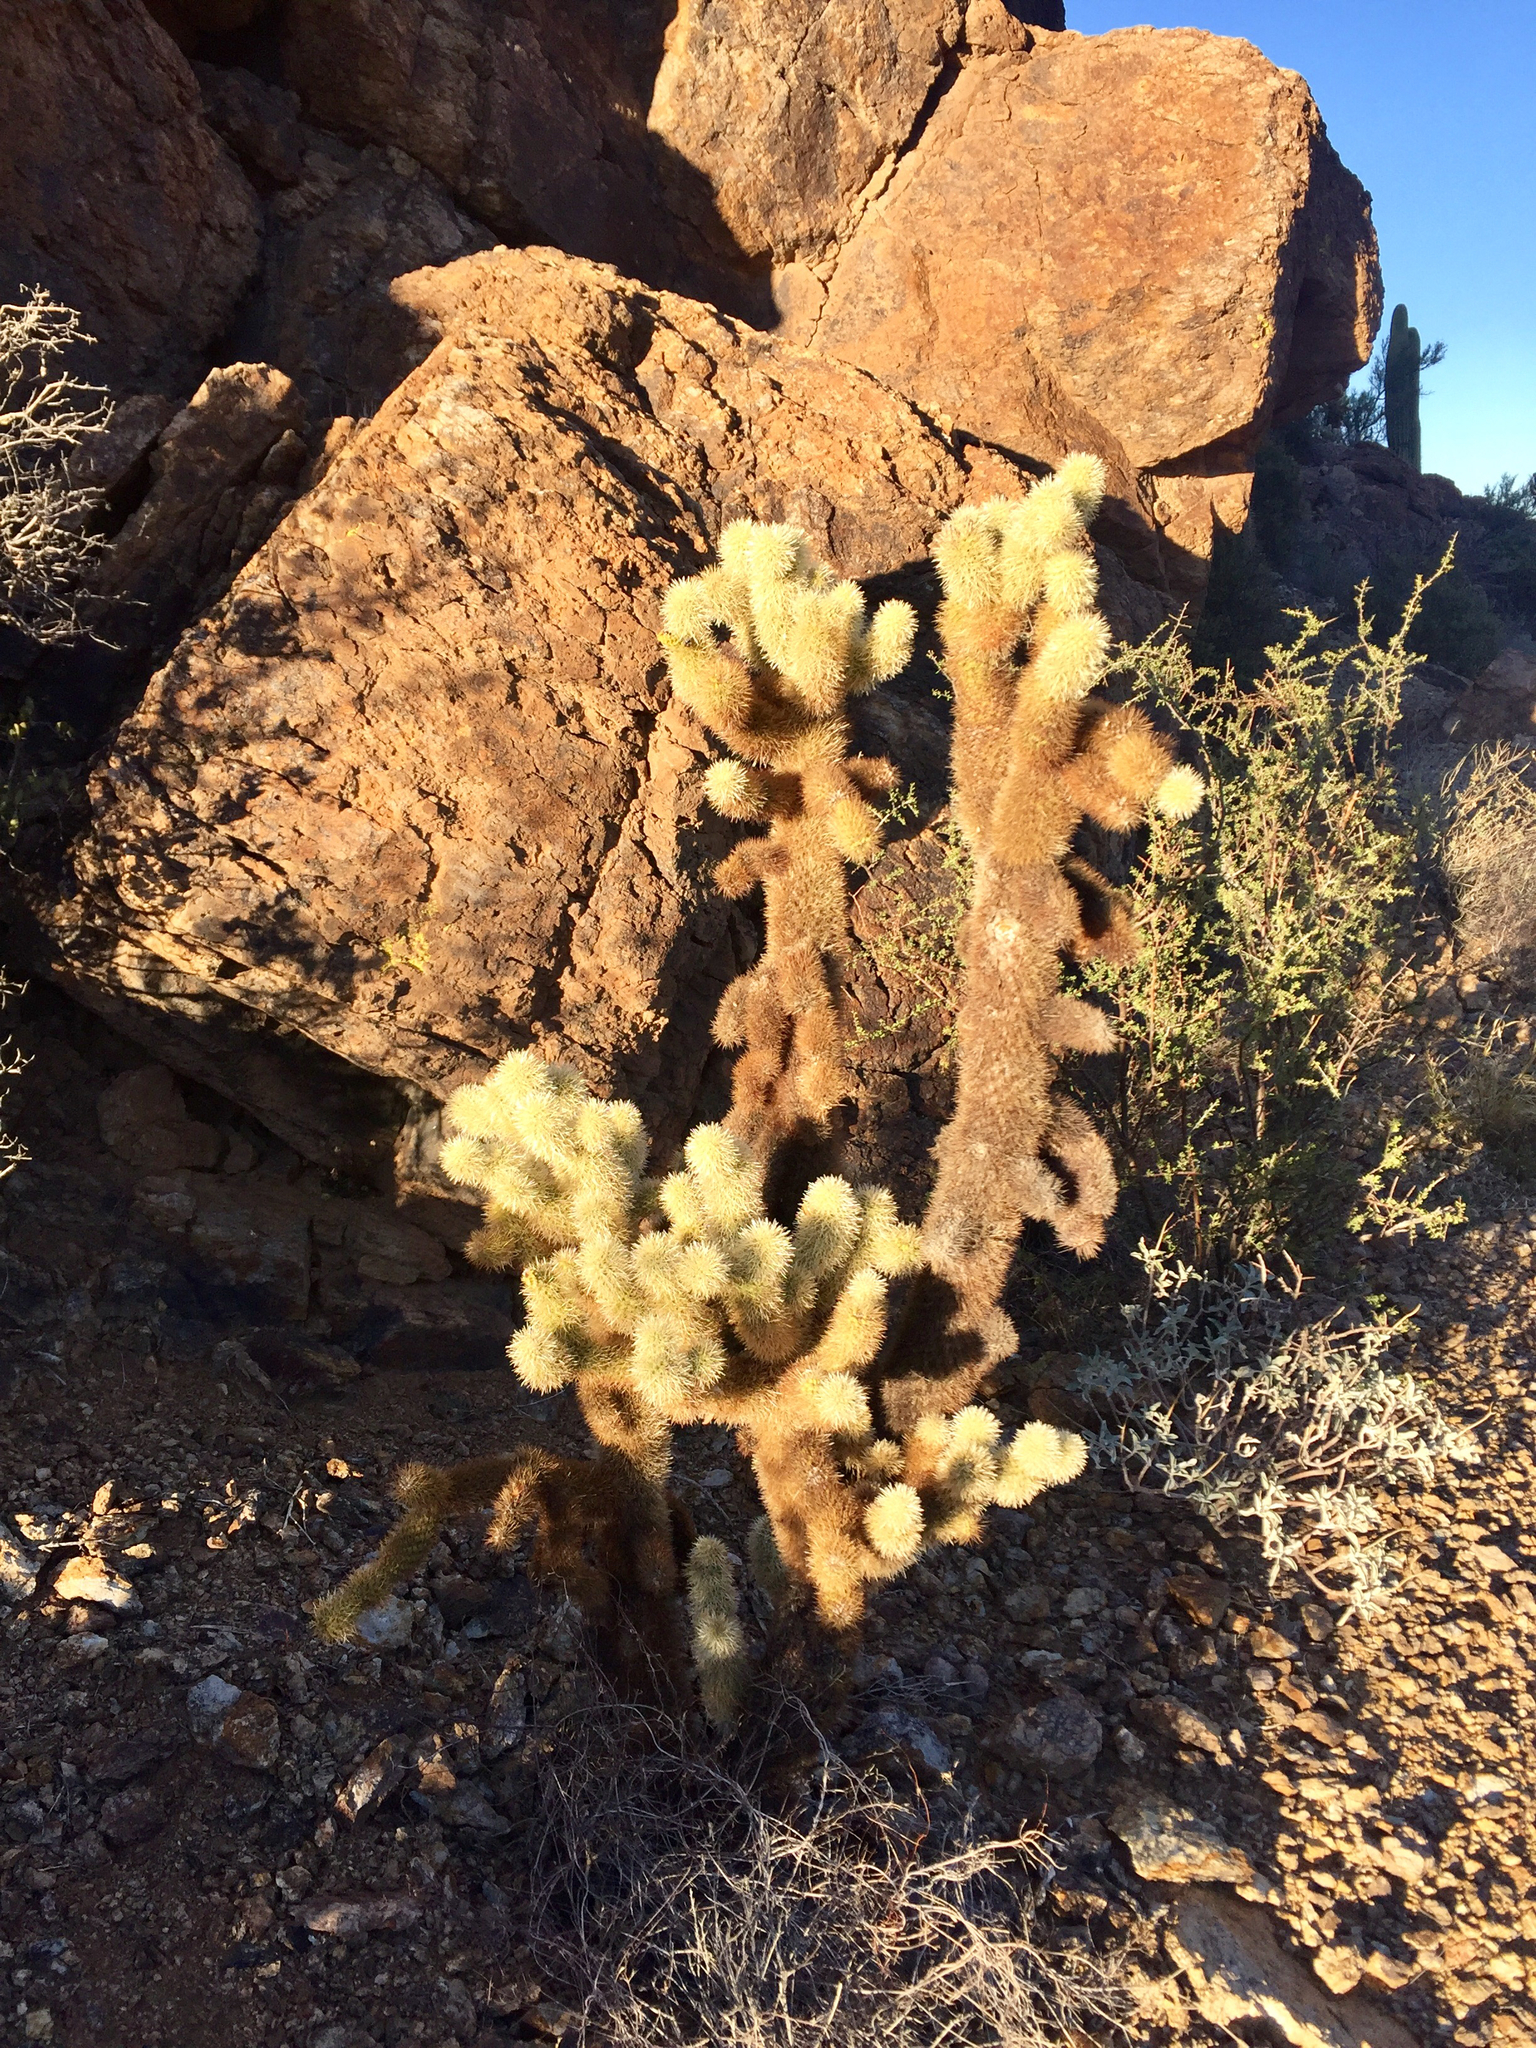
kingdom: Plantae
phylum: Tracheophyta
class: Magnoliopsida
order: Caryophyllales
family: Cactaceae
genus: Cylindropuntia
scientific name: Cylindropuntia fosbergii
